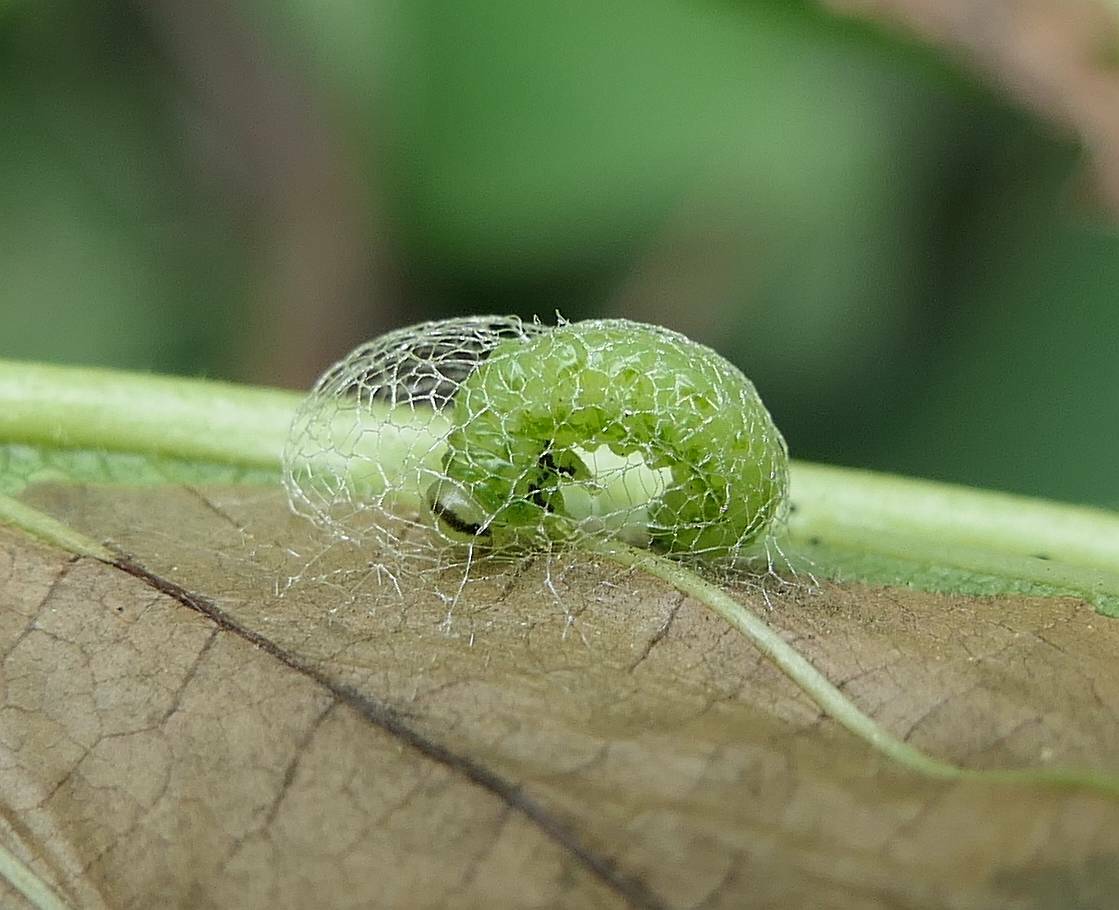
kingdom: Animalia
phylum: Arthropoda
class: Insecta
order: Hymenoptera
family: Argidae
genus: Aproceros
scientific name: Aproceros leucopoda
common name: Zig-zag elm sawfly
